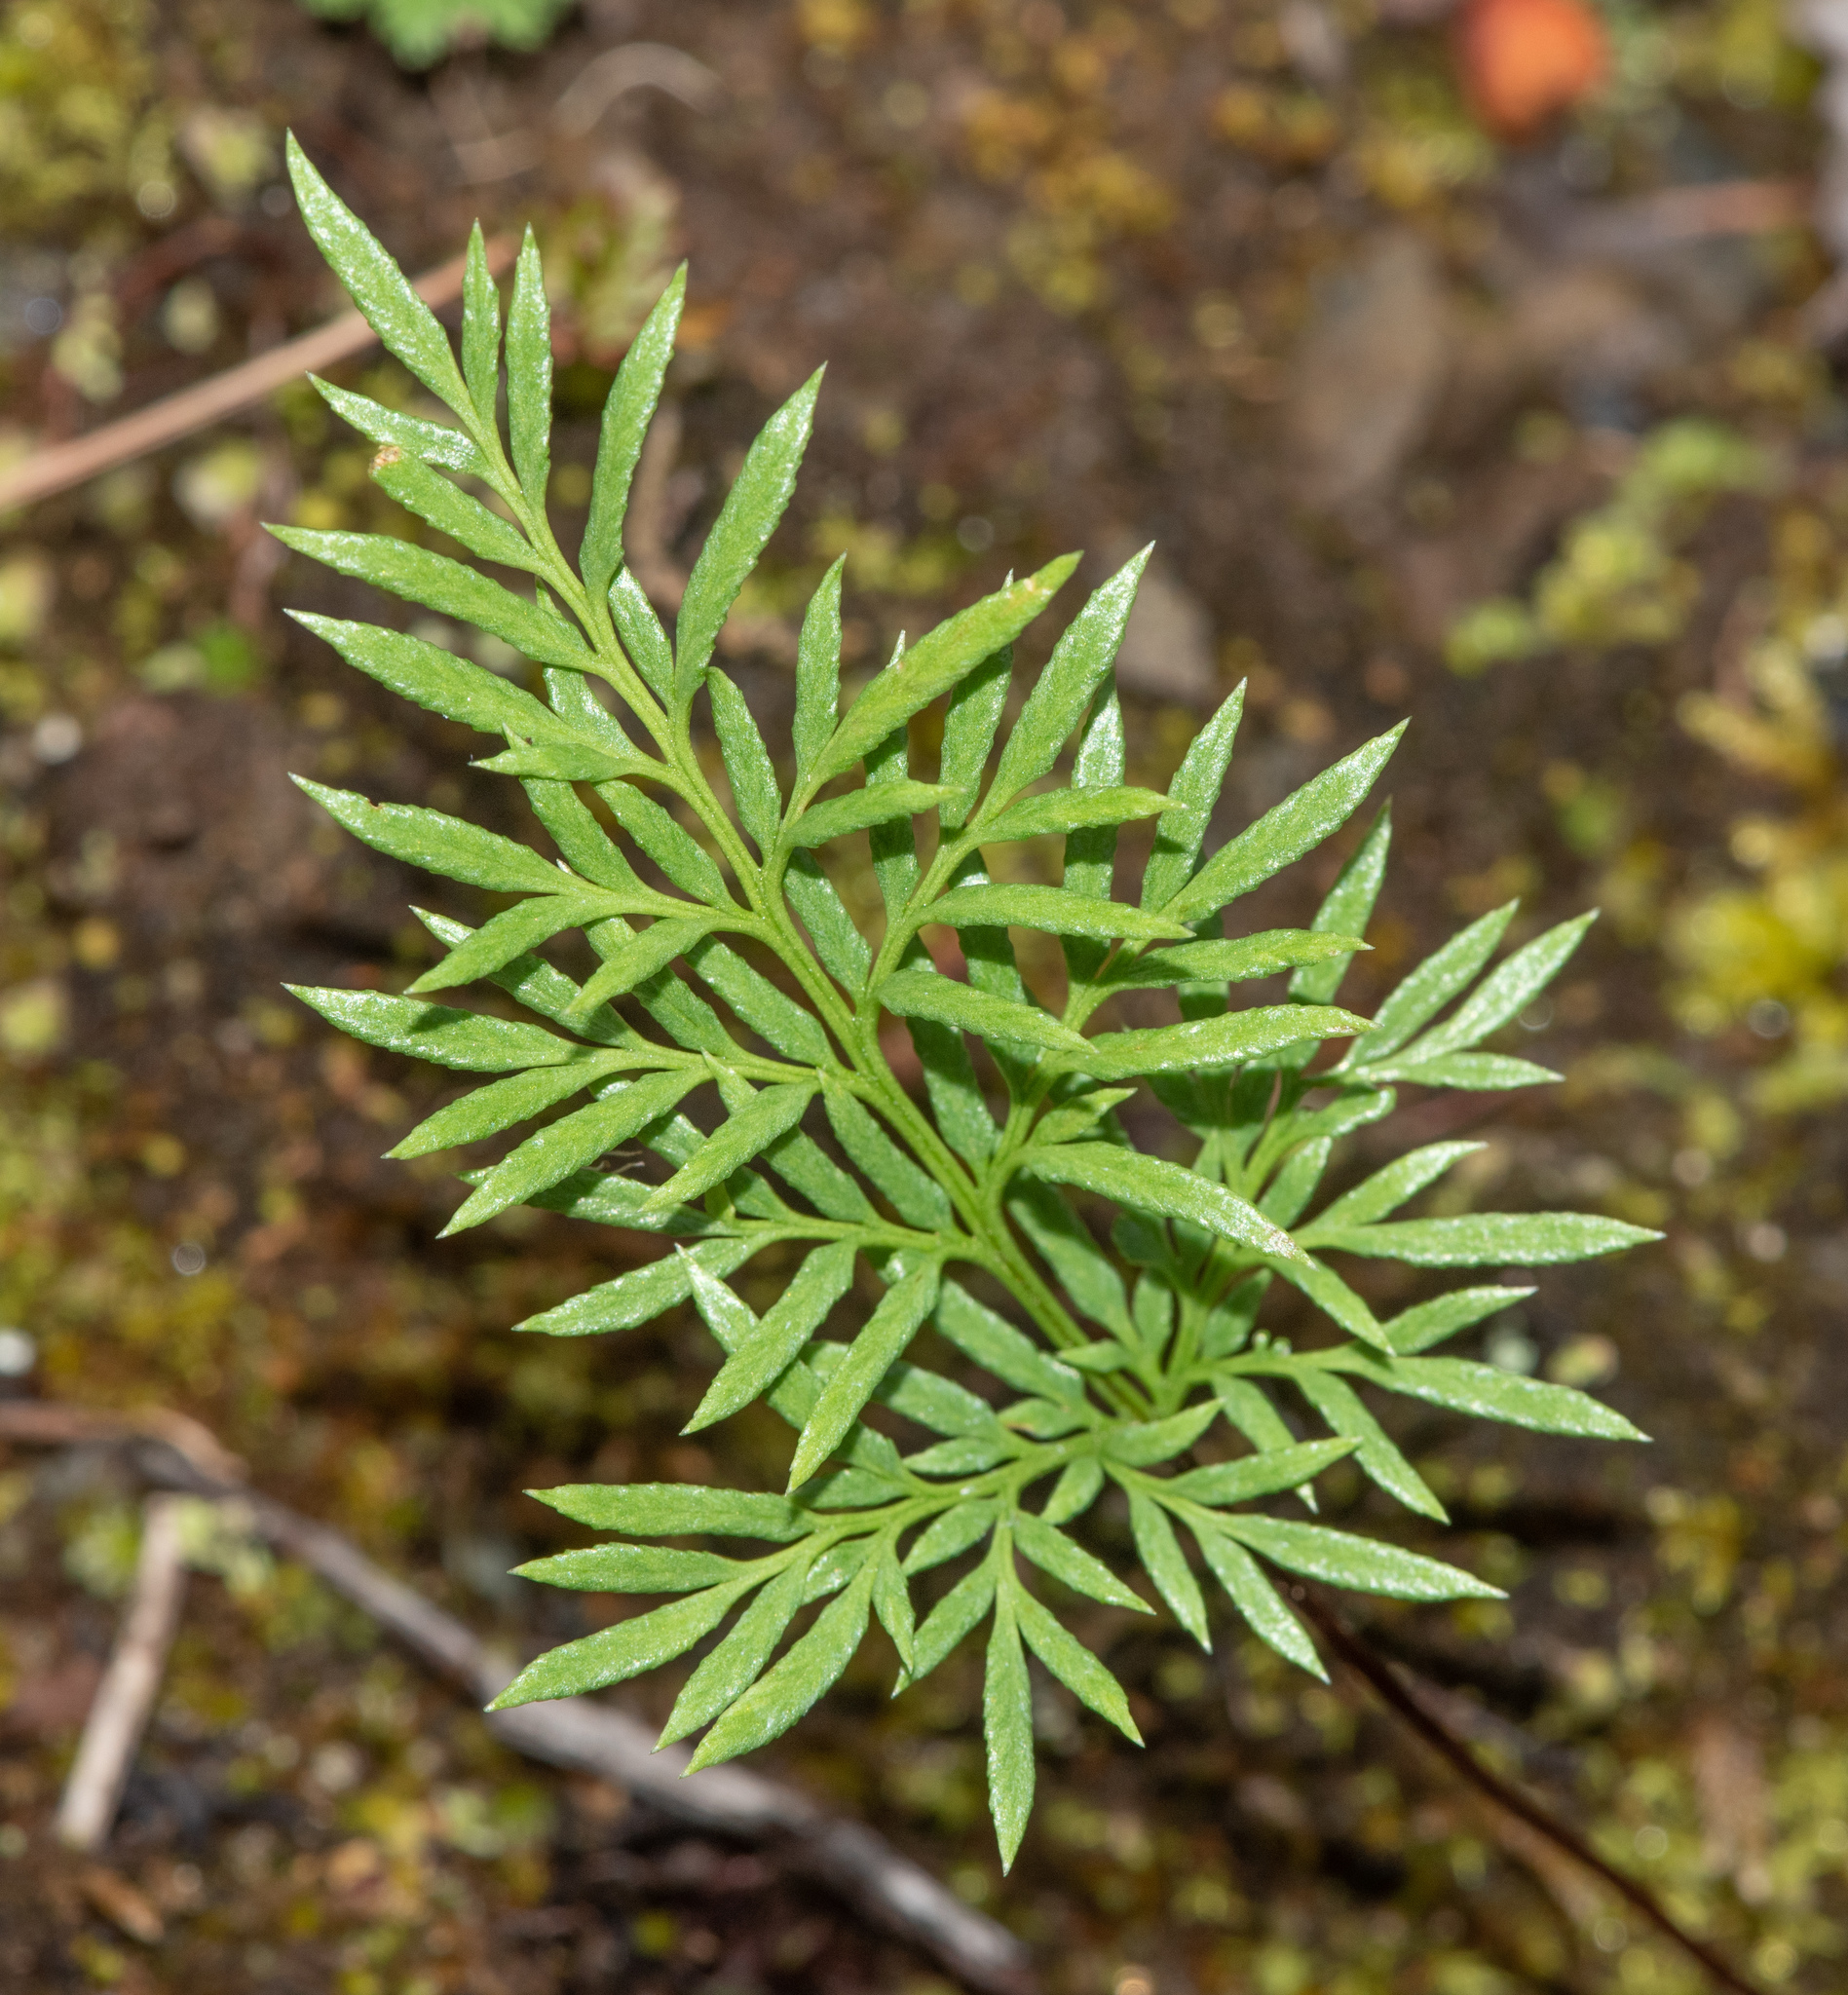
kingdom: Plantae
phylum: Tracheophyta
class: Polypodiopsida
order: Polypodiales
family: Pteridaceae
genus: Aspidotis
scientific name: Aspidotis densa
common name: Indian's dream
